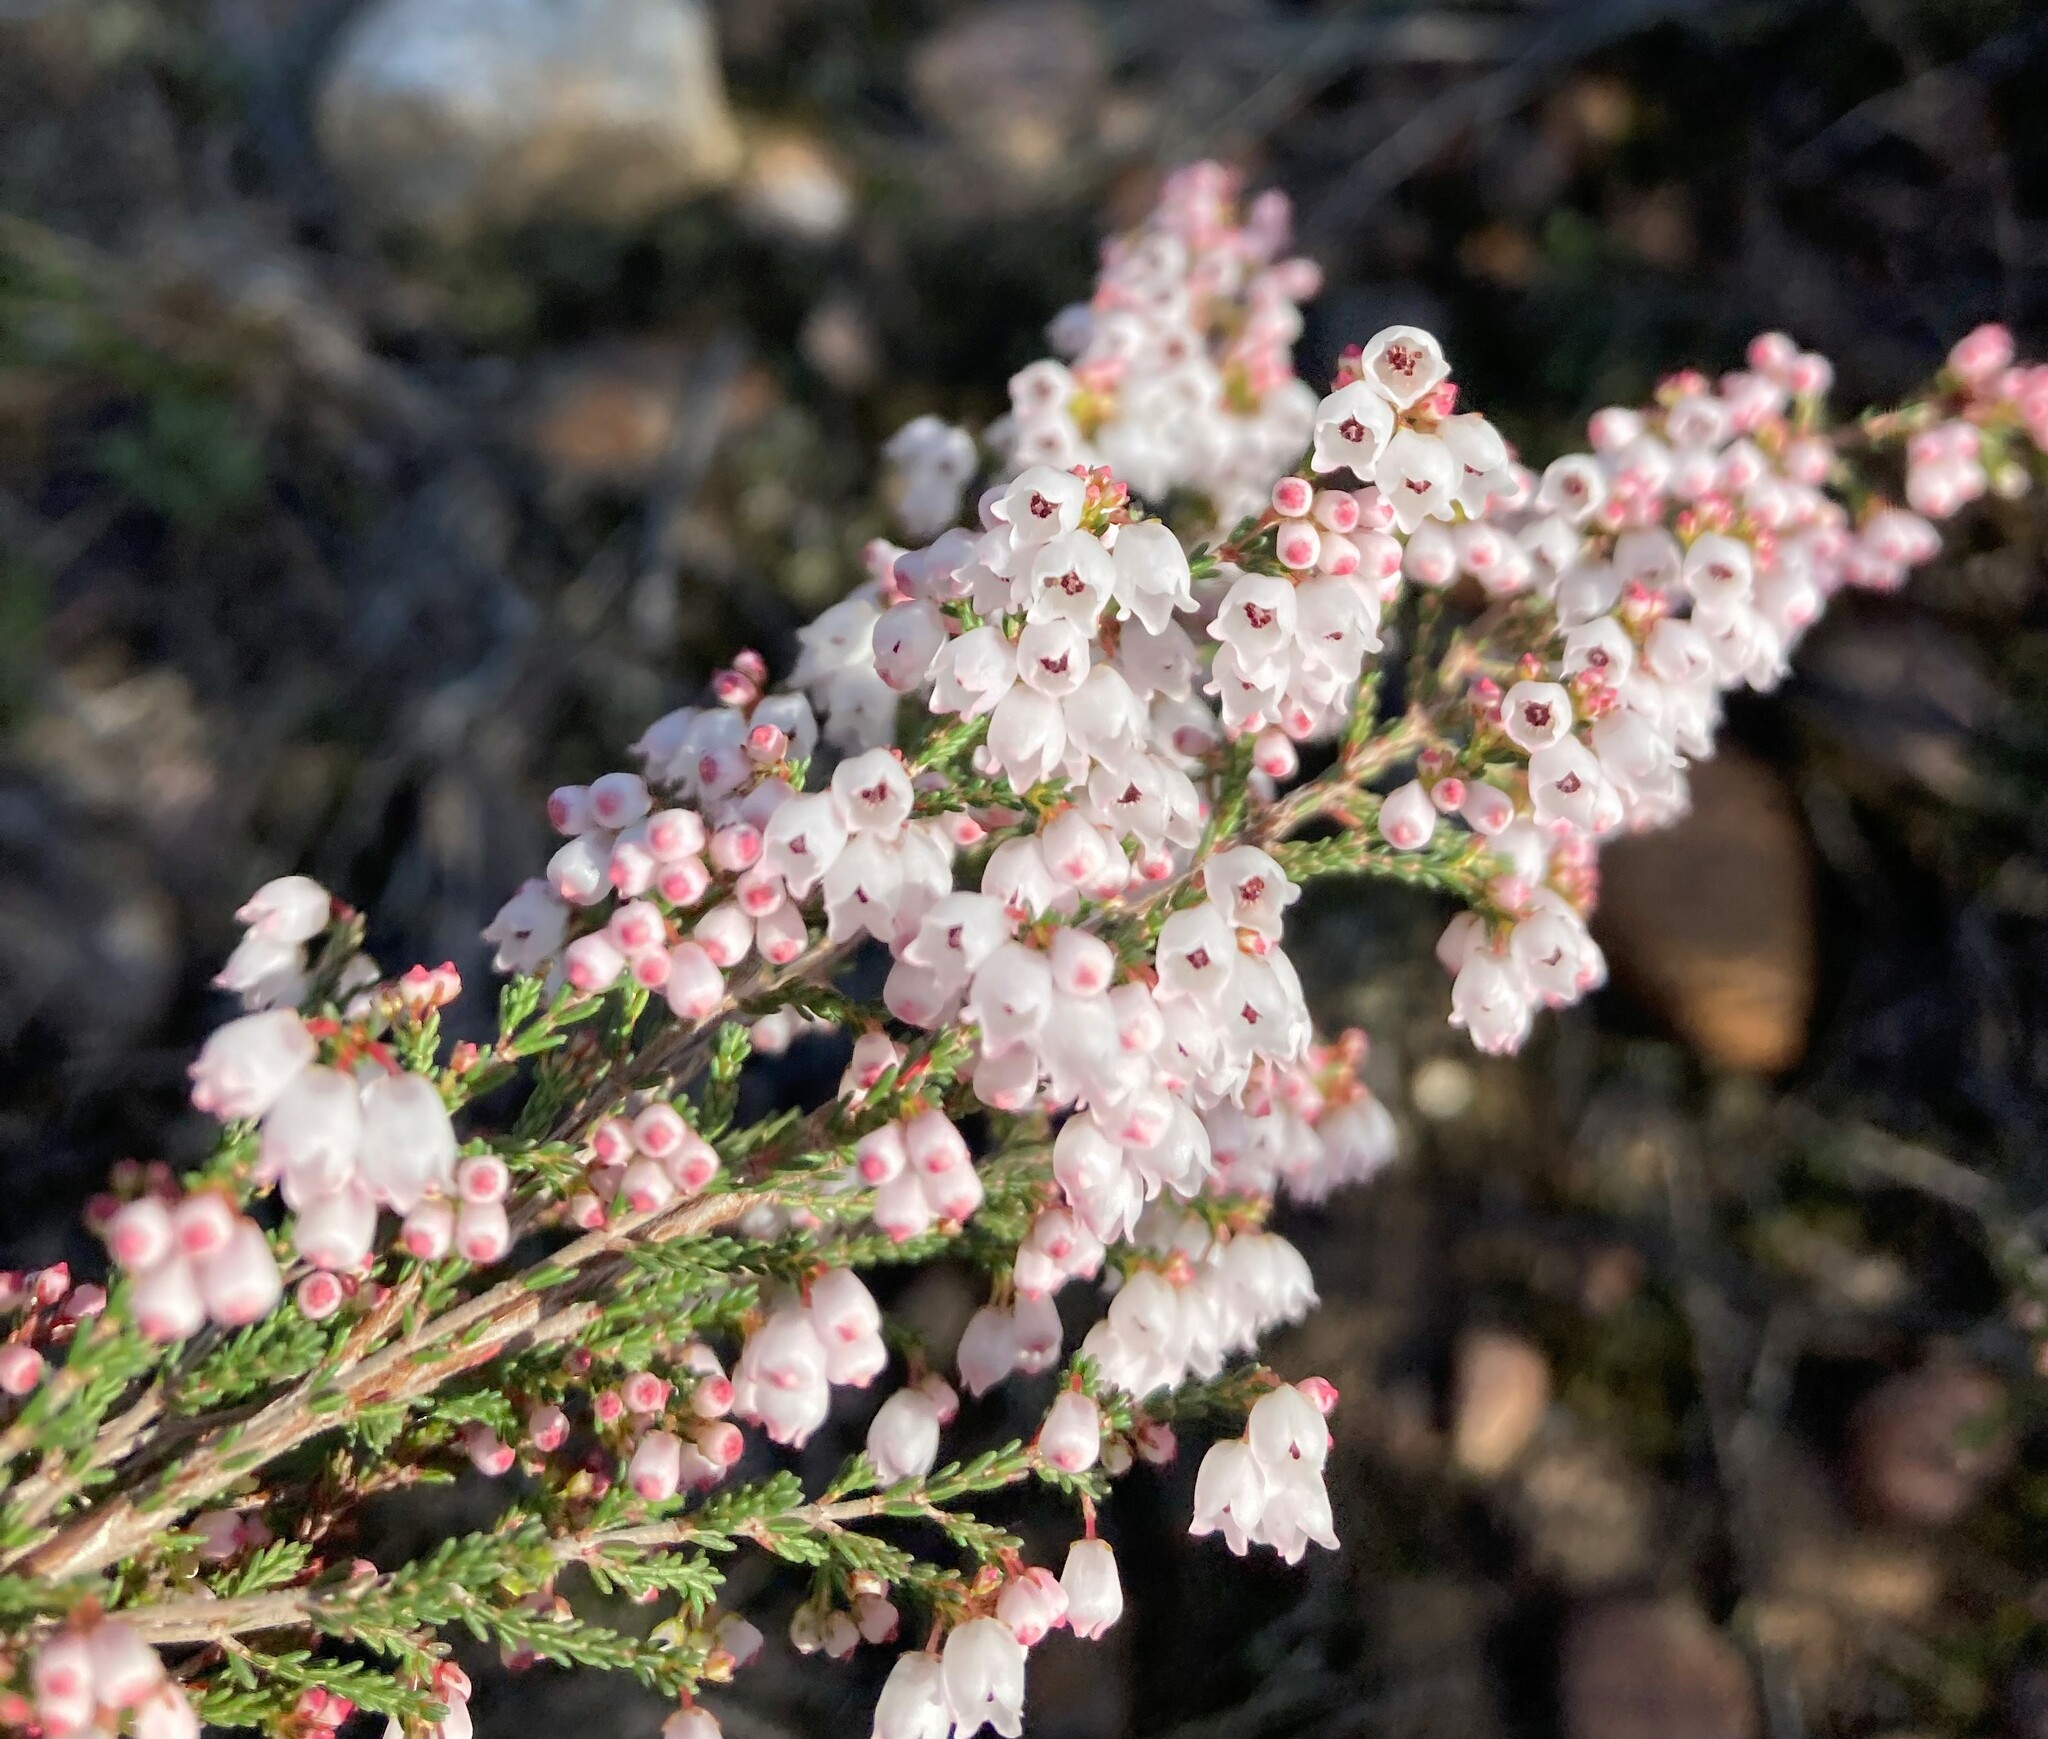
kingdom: Plantae
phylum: Tracheophyta
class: Magnoliopsida
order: Ericales
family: Ericaceae
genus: Erica
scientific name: Erica quadrangularis
